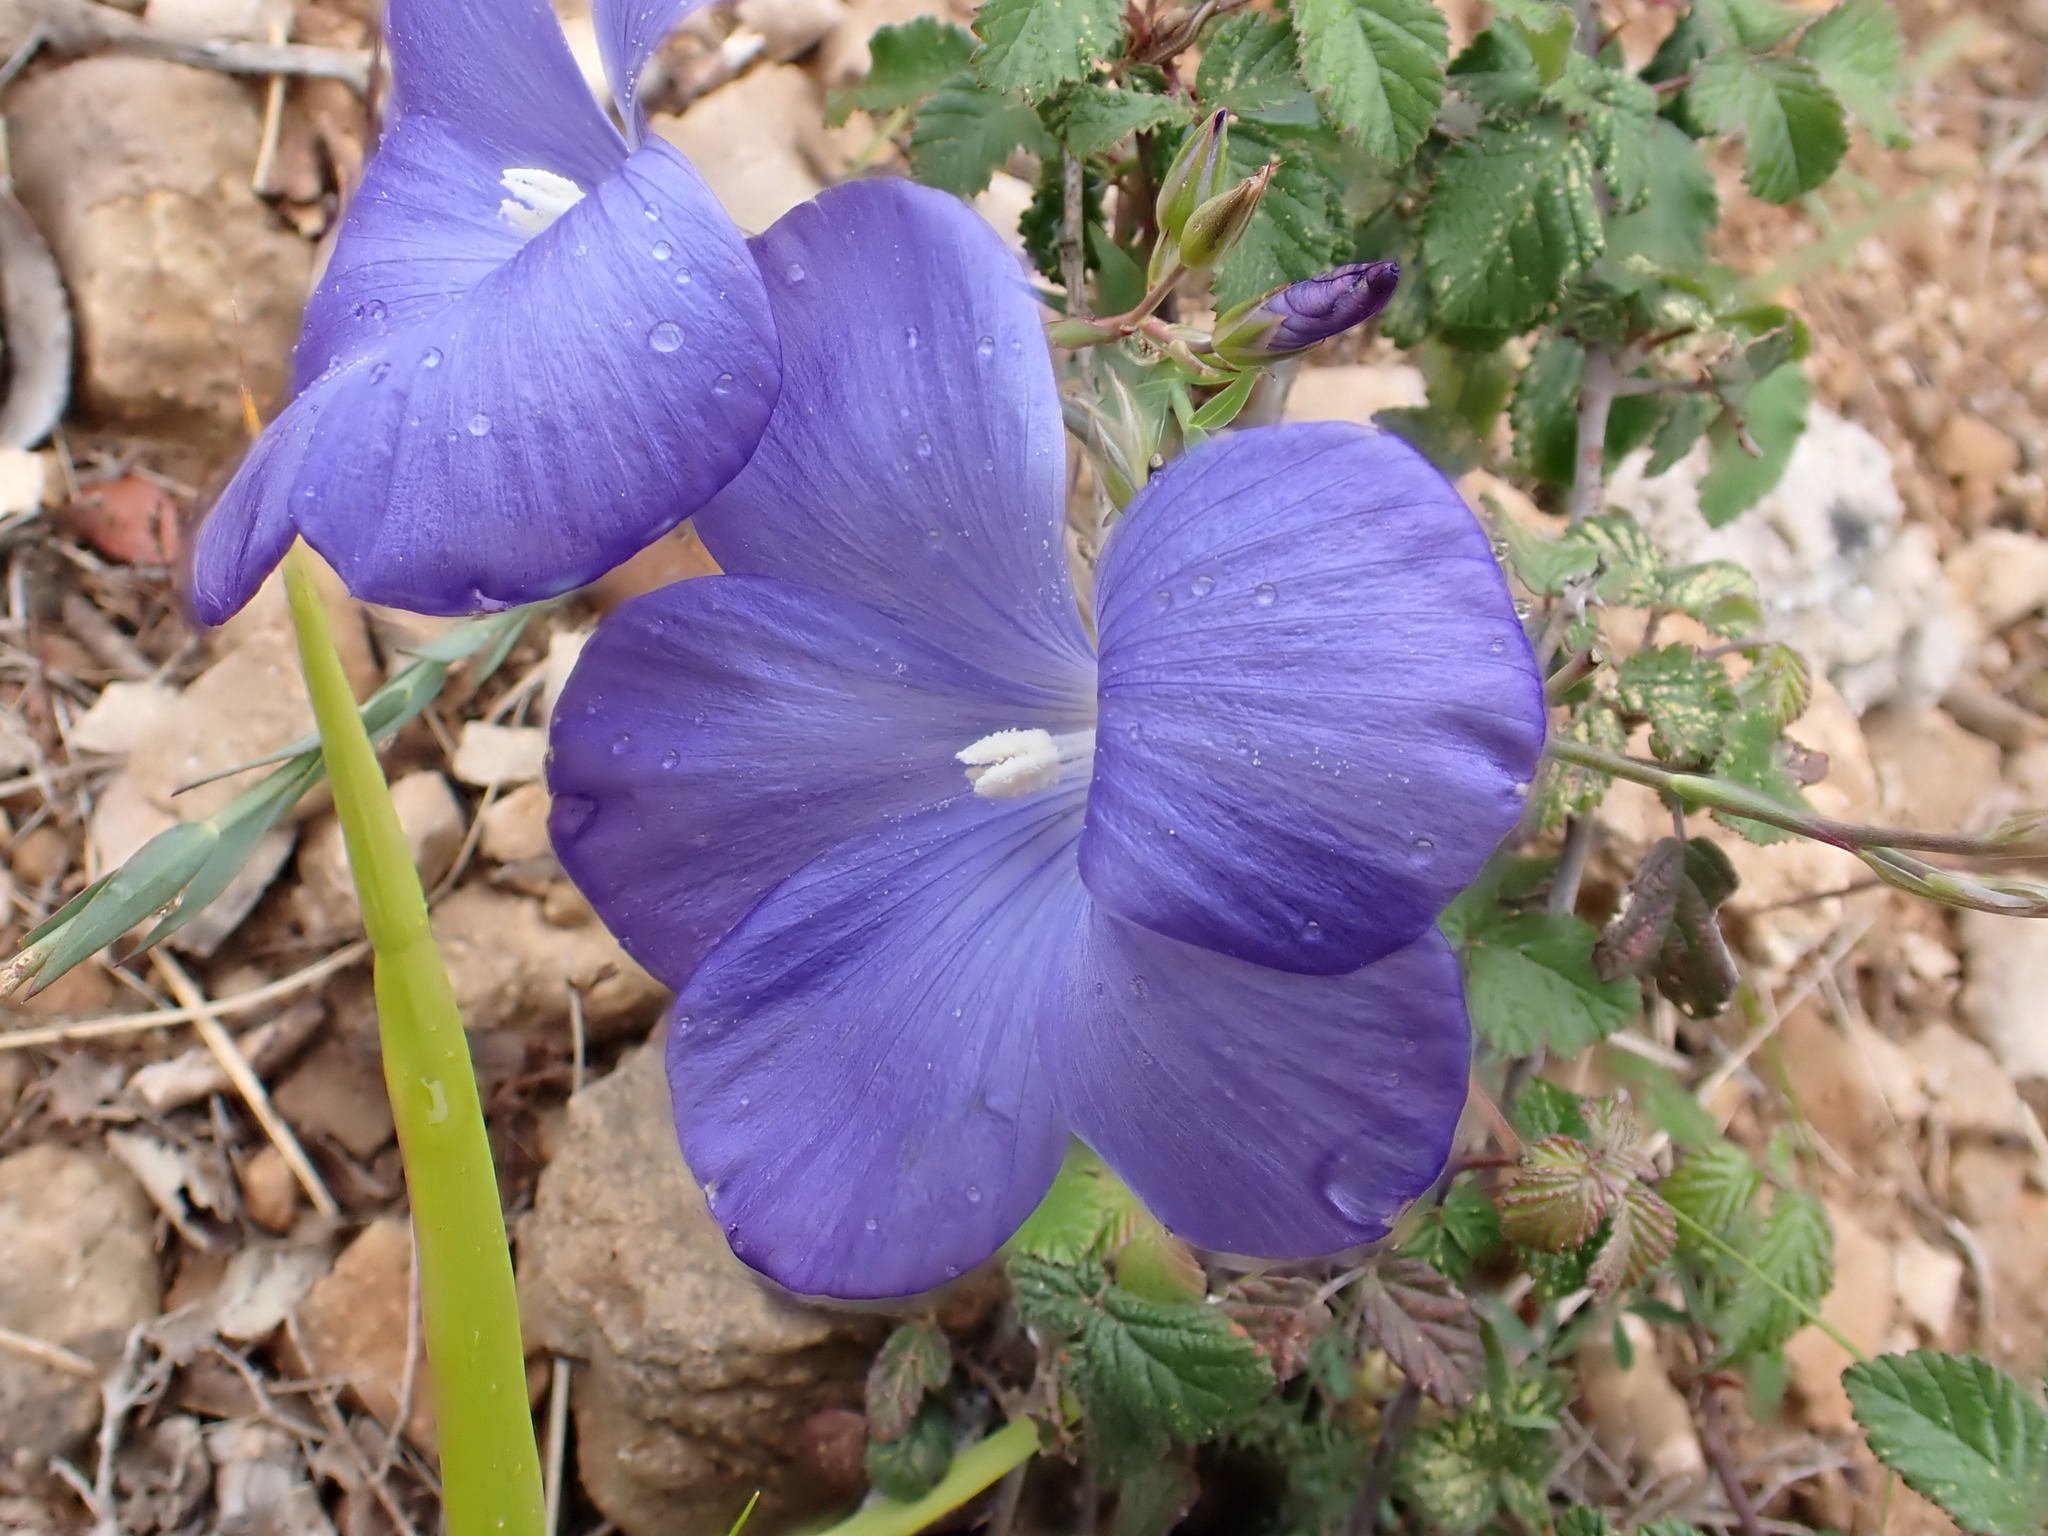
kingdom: Plantae
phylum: Tracheophyta
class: Magnoliopsida
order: Malpighiales
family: Linaceae
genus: Linum
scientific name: Linum narbonense
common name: Flax
